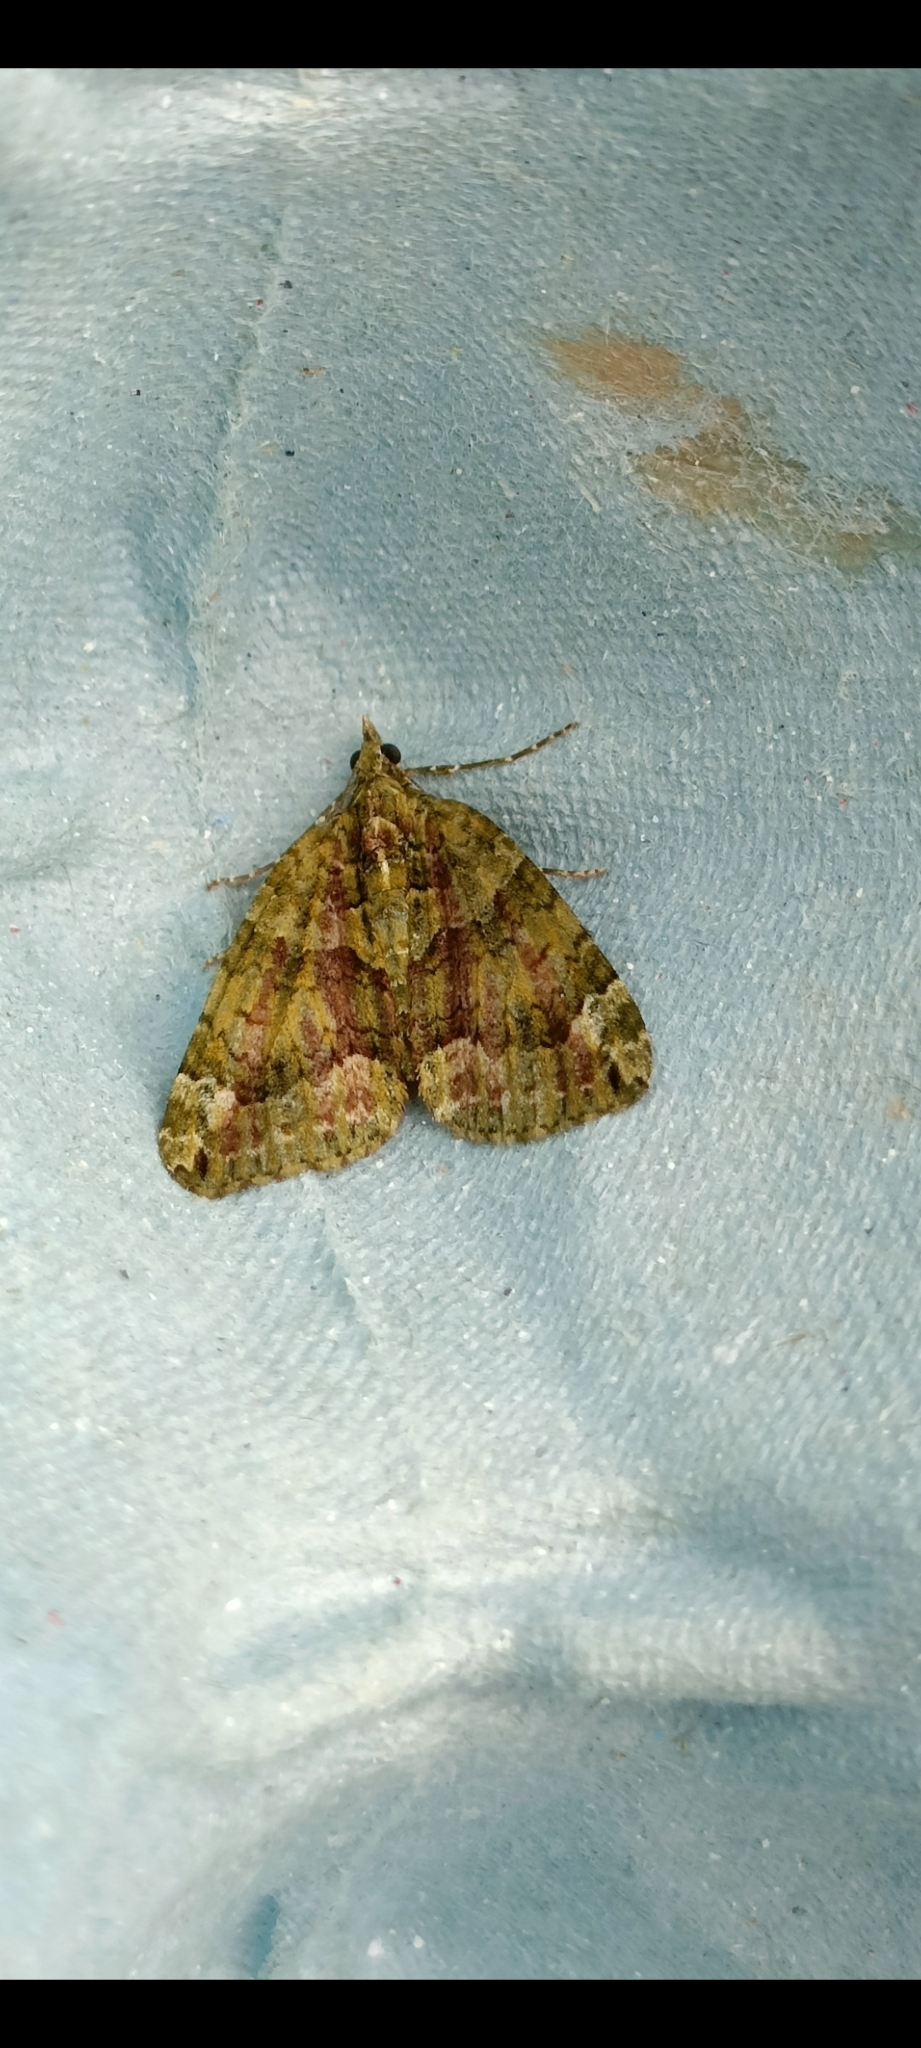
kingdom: Animalia
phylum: Arthropoda
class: Insecta
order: Lepidoptera
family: Geometridae
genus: Chloroclysta
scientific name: Chloroclysta siterata
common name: Red-green carpet
